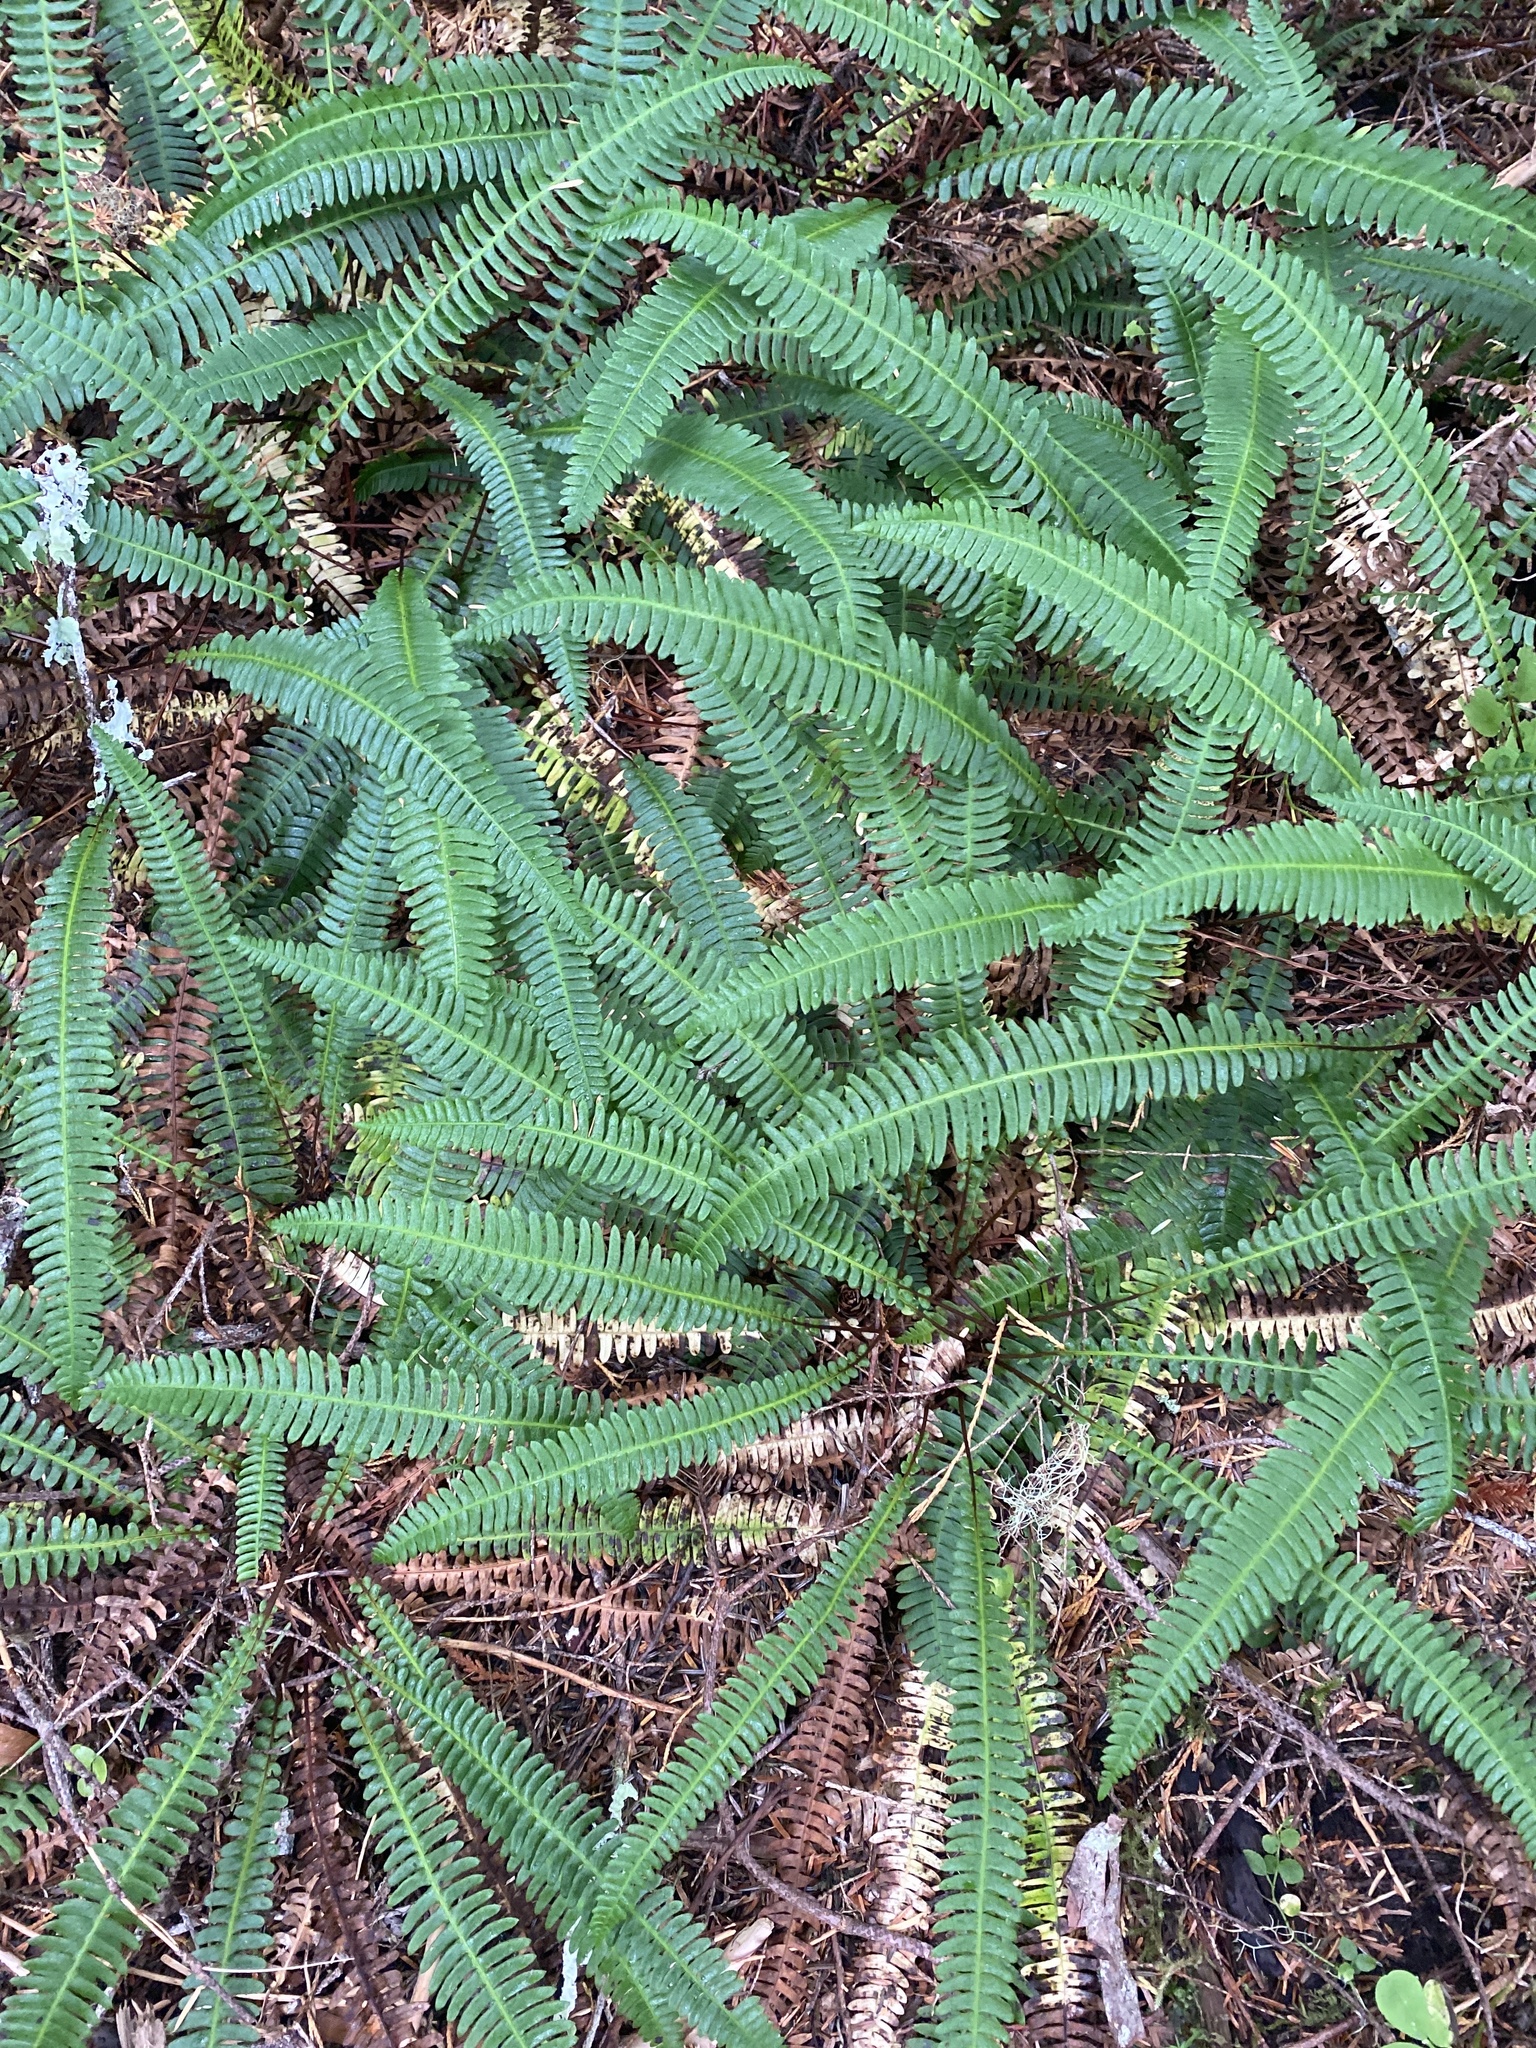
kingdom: Plantae
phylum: Tracheophyta
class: Polypodiopsida
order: Polypodiales
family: Blechnaceae
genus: Struthiopteris
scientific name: Struthiopteris spicant
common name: Deer fern
